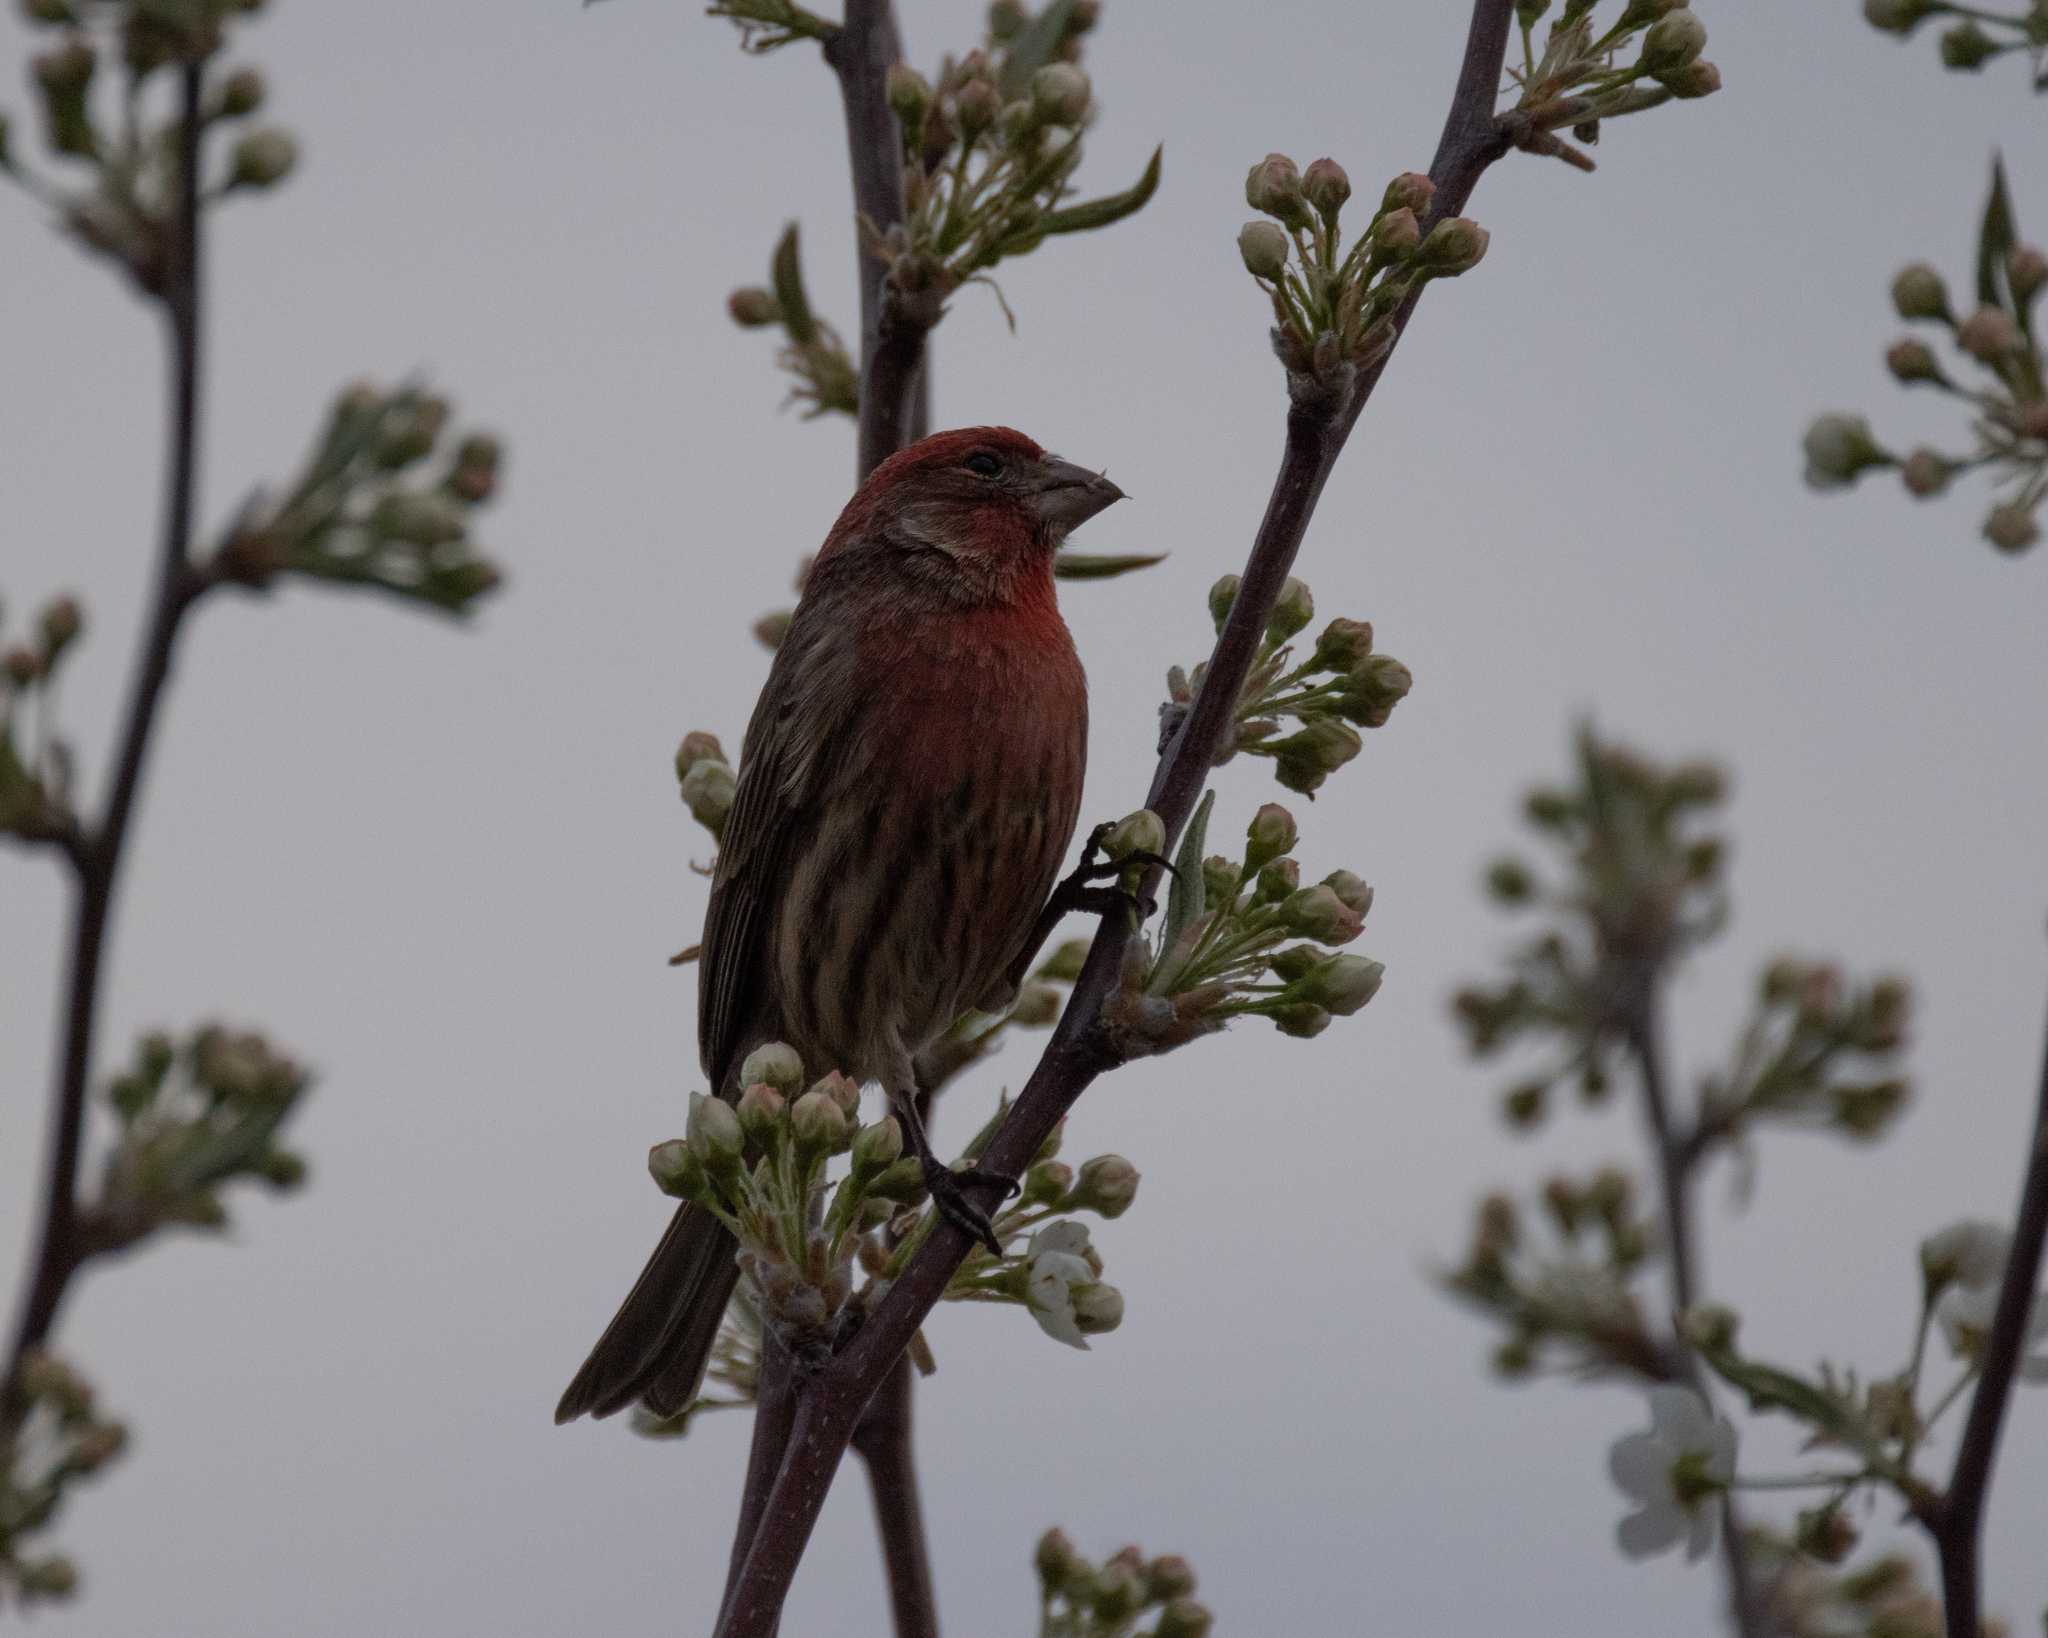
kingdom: Animalia
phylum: Chordata
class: Aves
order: Passeriformes
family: Fringillidae
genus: Haemorhous
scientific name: Haemorhous mexicanus
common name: House finch
